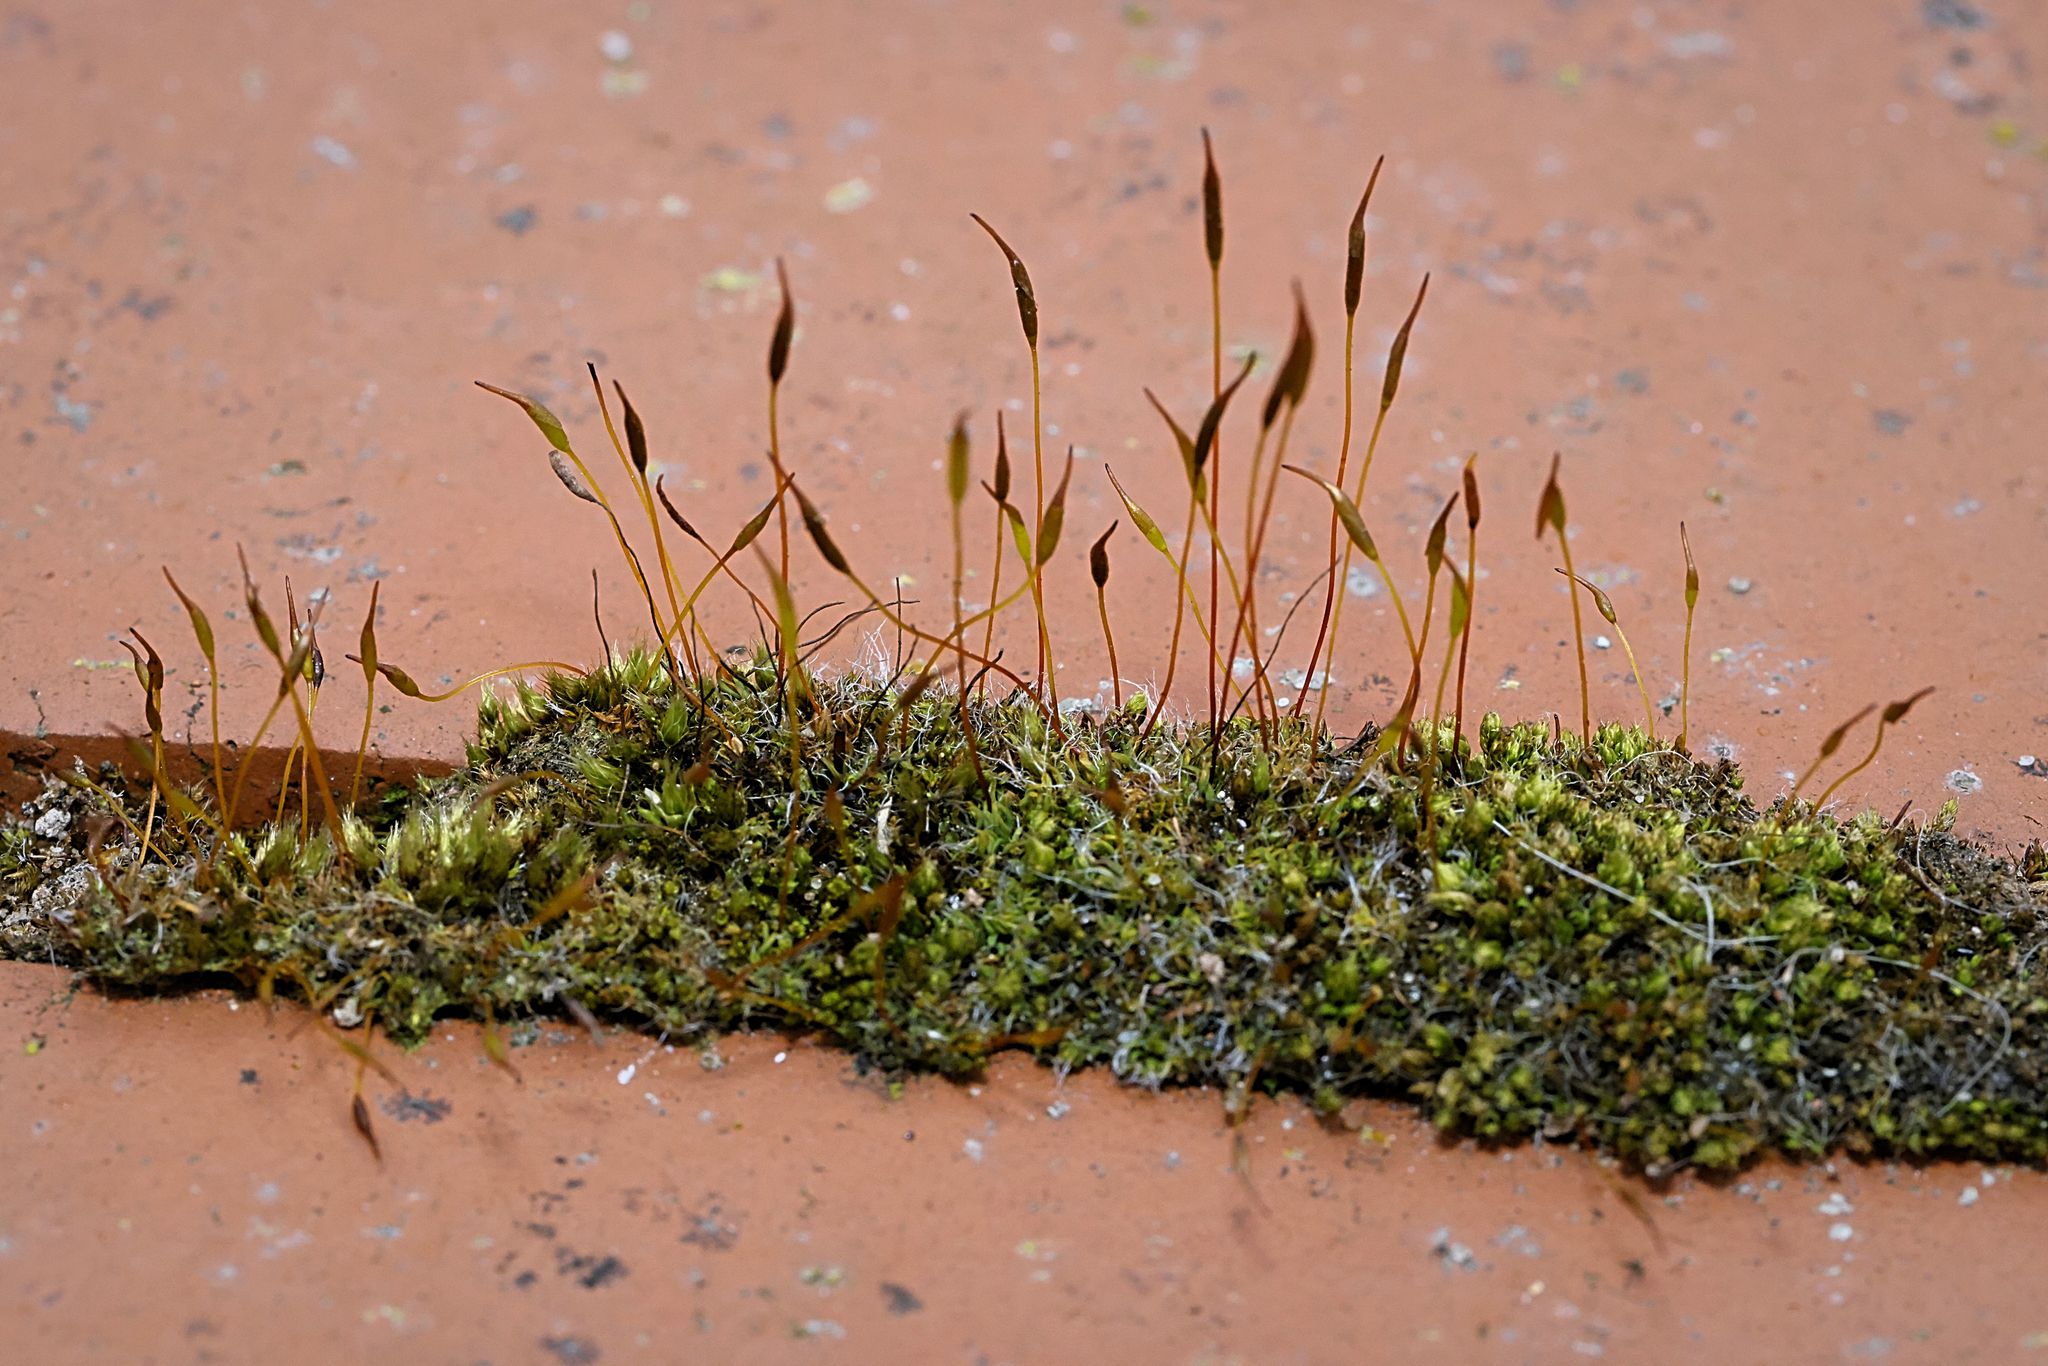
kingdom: Plantae
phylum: Bryophyta
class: Bryopsida
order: Pottiales
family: Pottiaceae
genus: Tortula
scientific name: Tortula muralis
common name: Wall screw-moss
